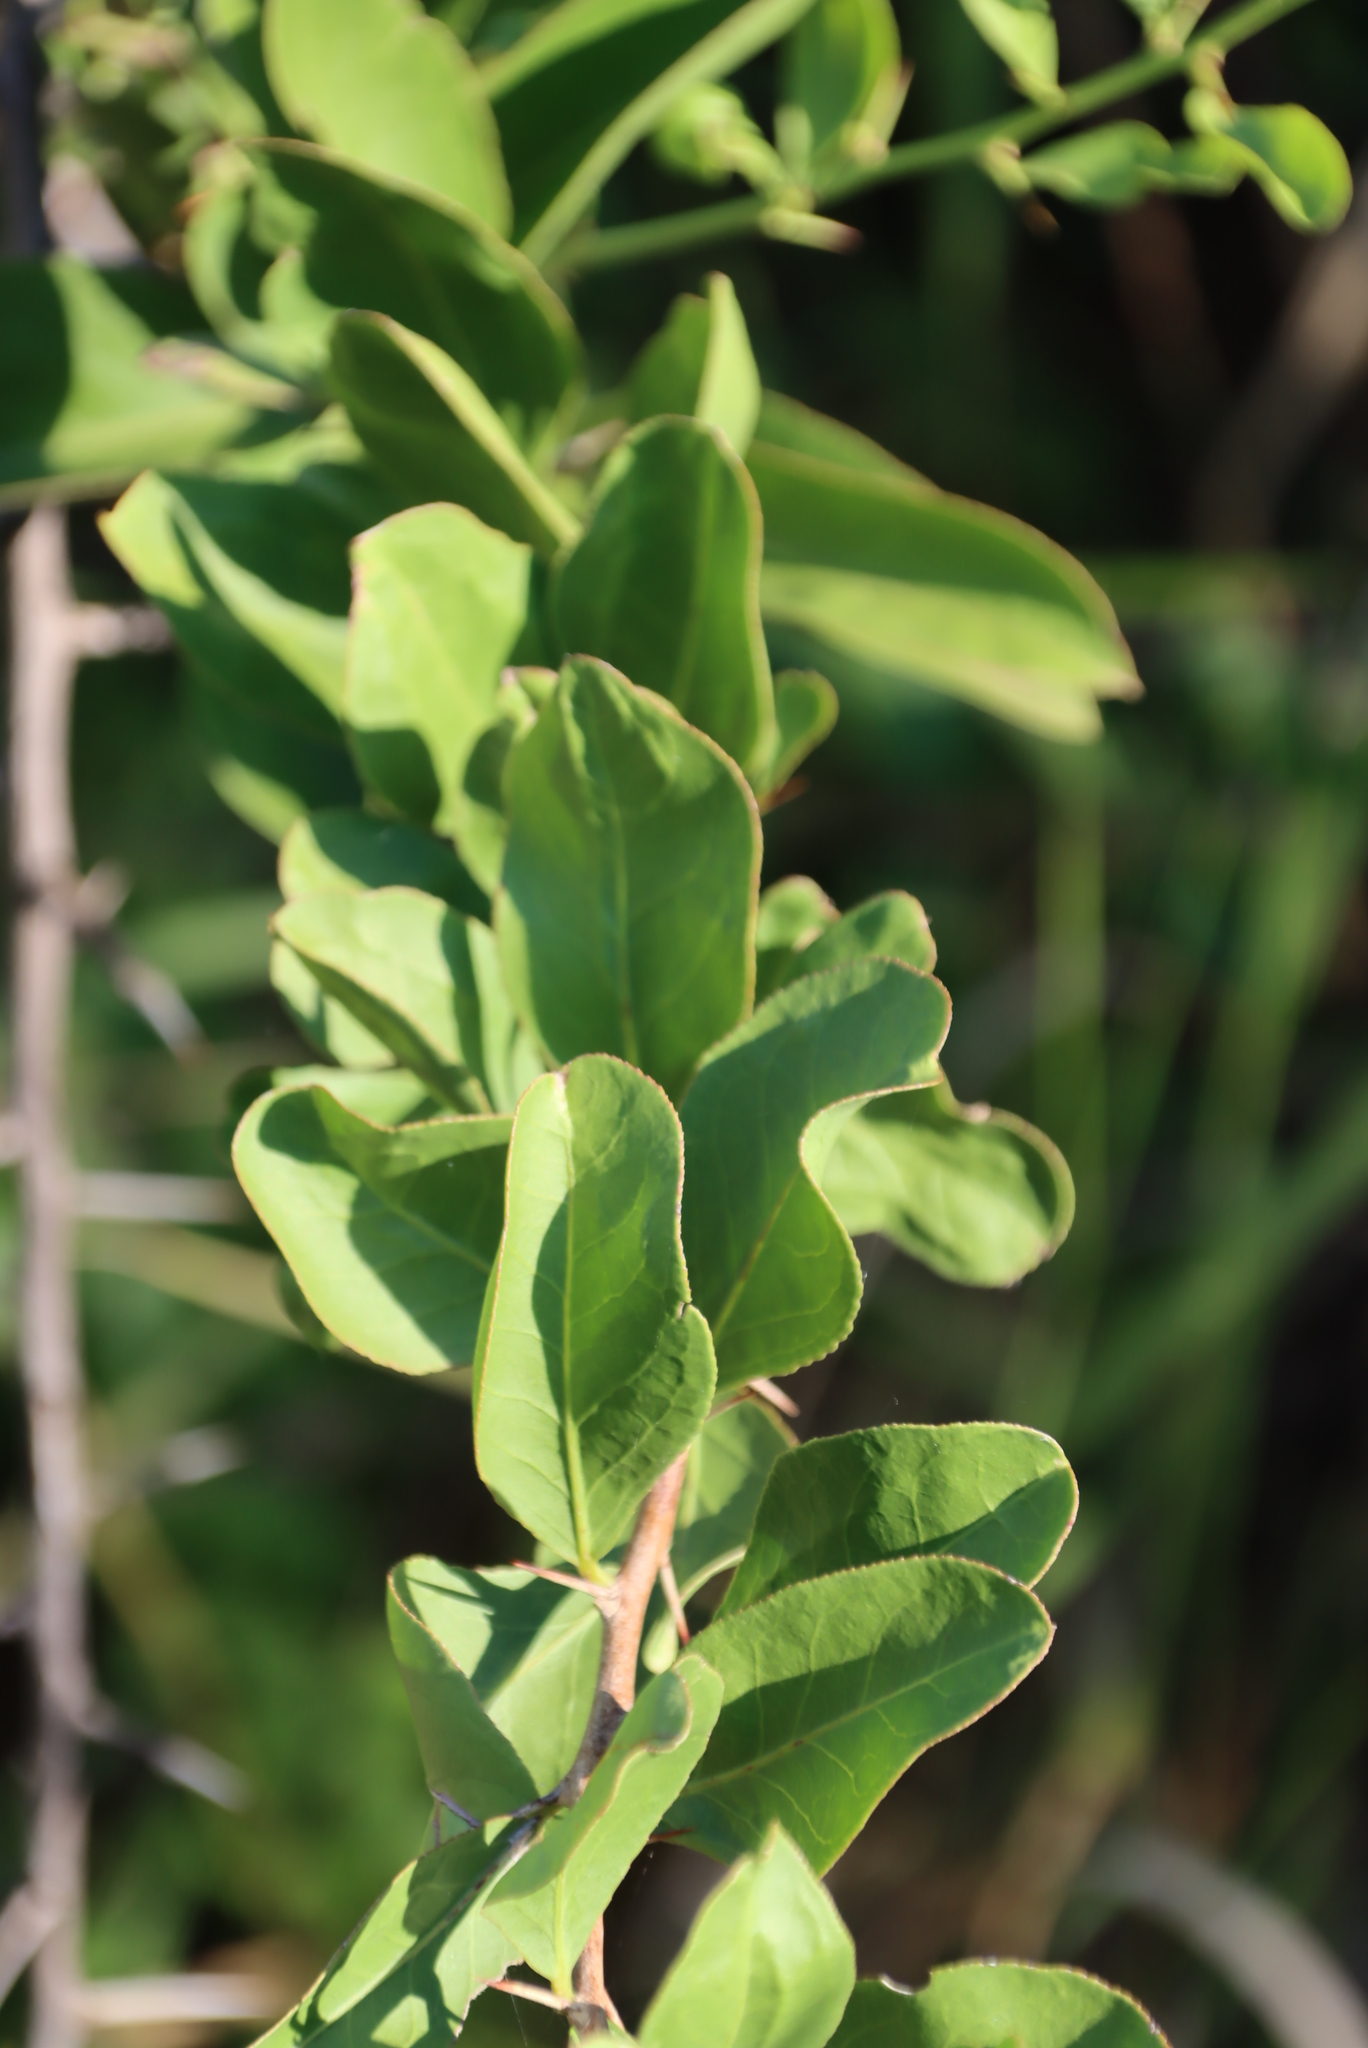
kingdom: Plantae
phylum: Tracheophyta
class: Magnoliopsida
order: Celastrales
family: Celastraceae
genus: Gymnosporia
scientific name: Gymnosporia glaucophylla
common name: Blue spike-thorn
